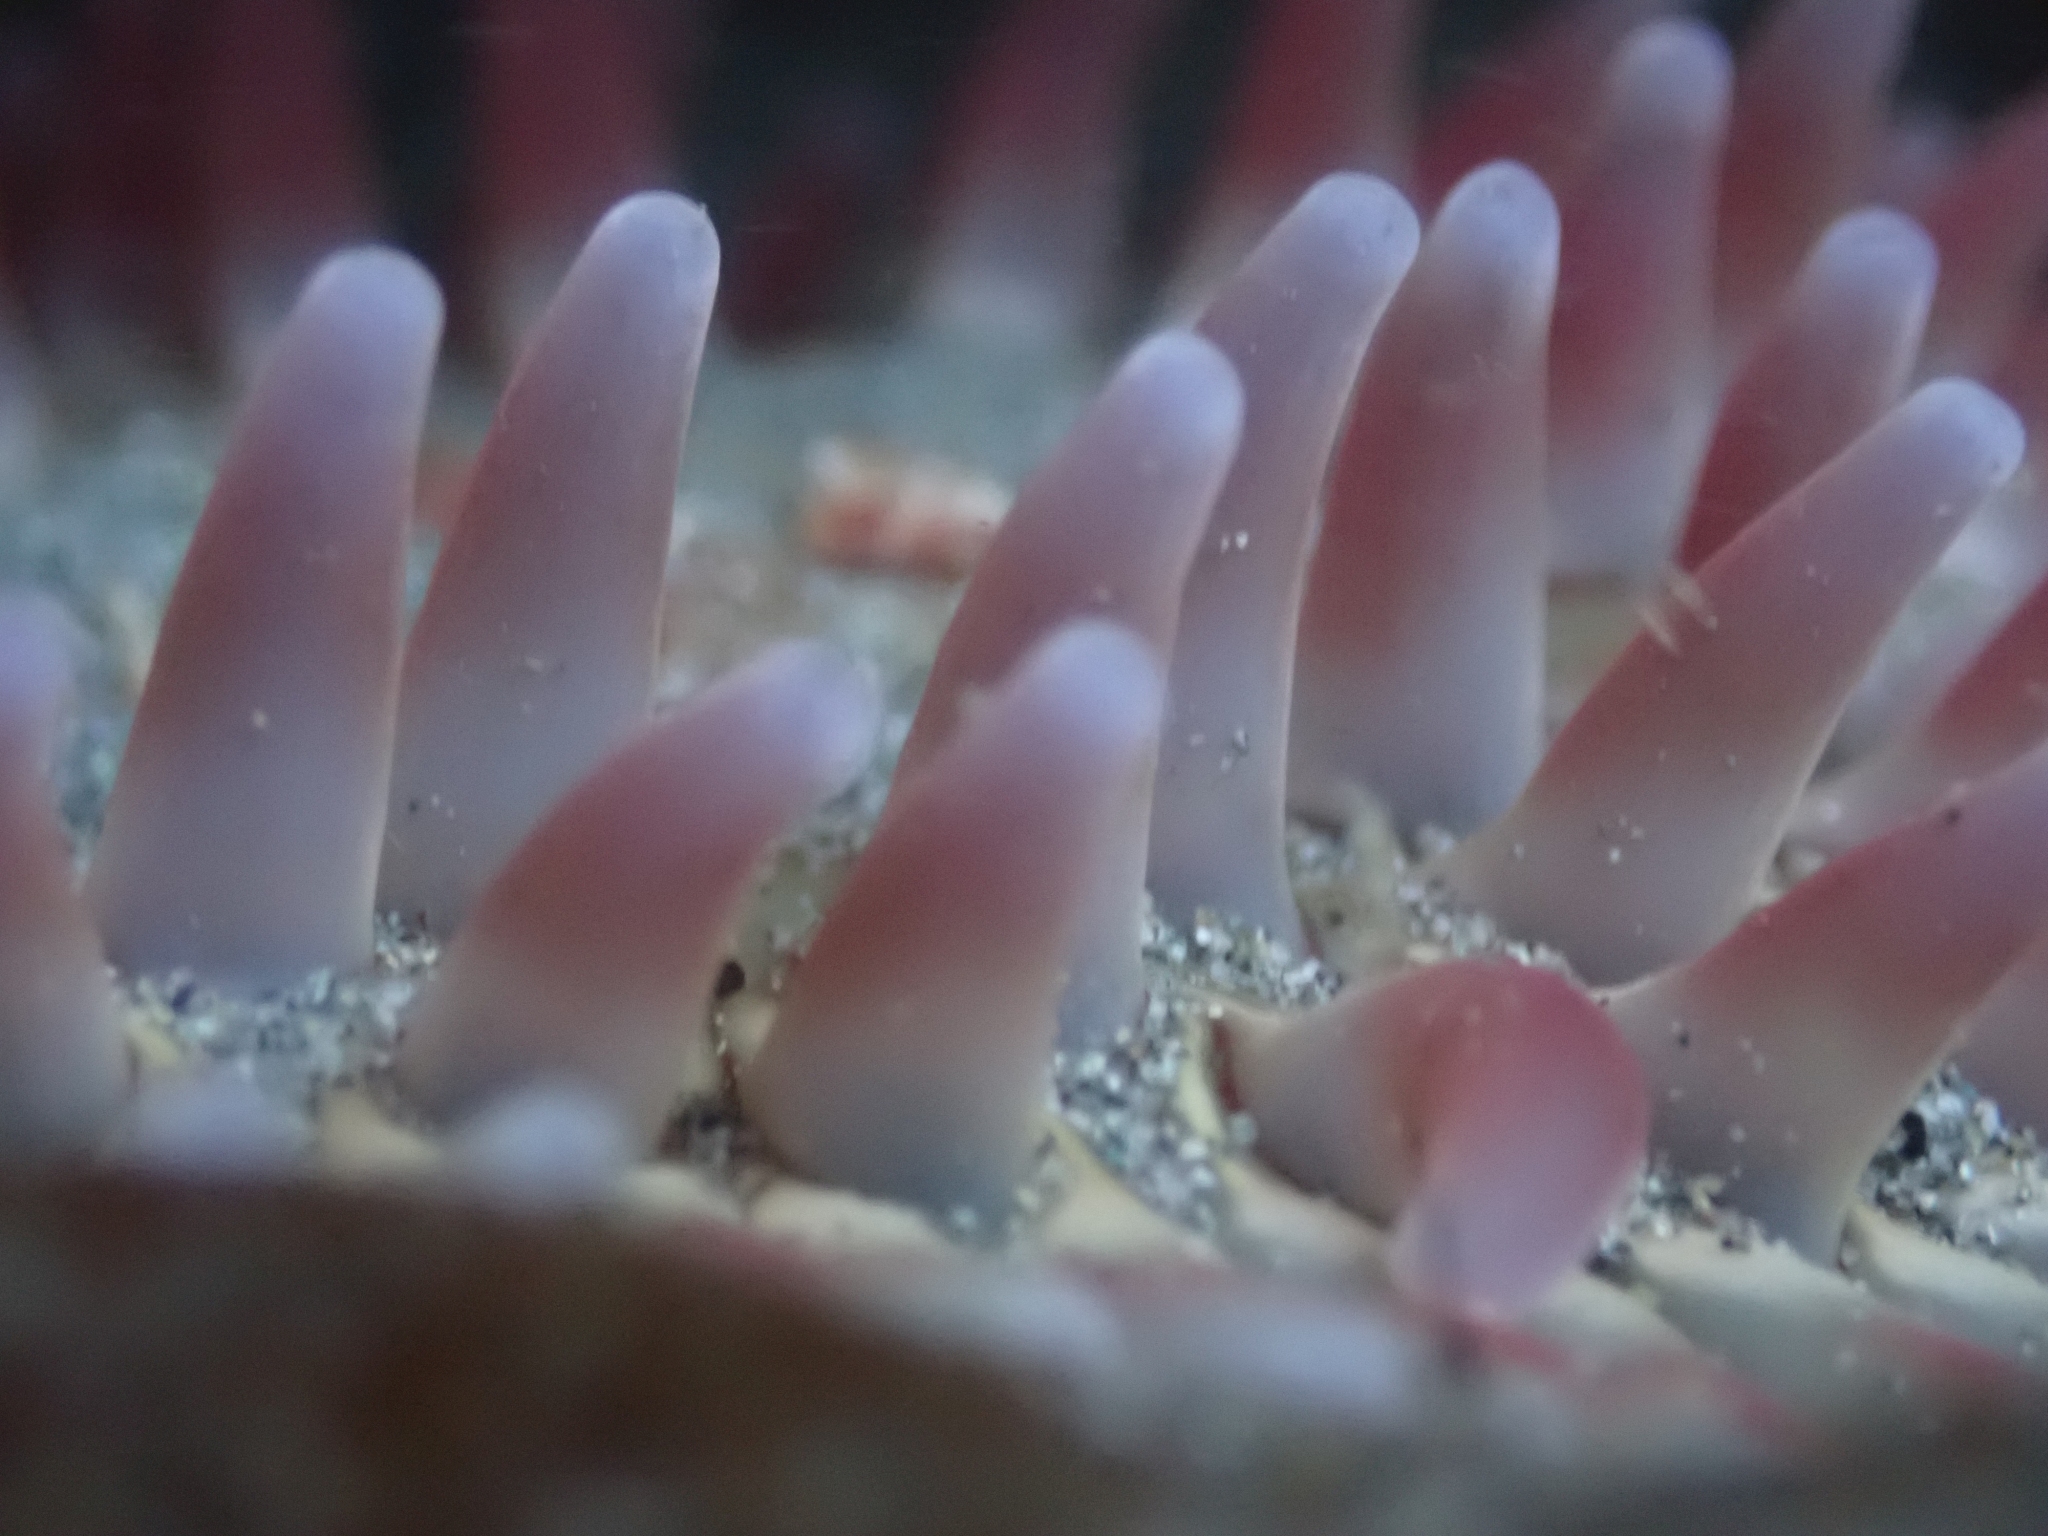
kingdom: Animalia
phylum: Cnidaria
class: Anthozoa
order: Actiniaria
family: Actiniidae
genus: Urticina
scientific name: Urticina clandestina
